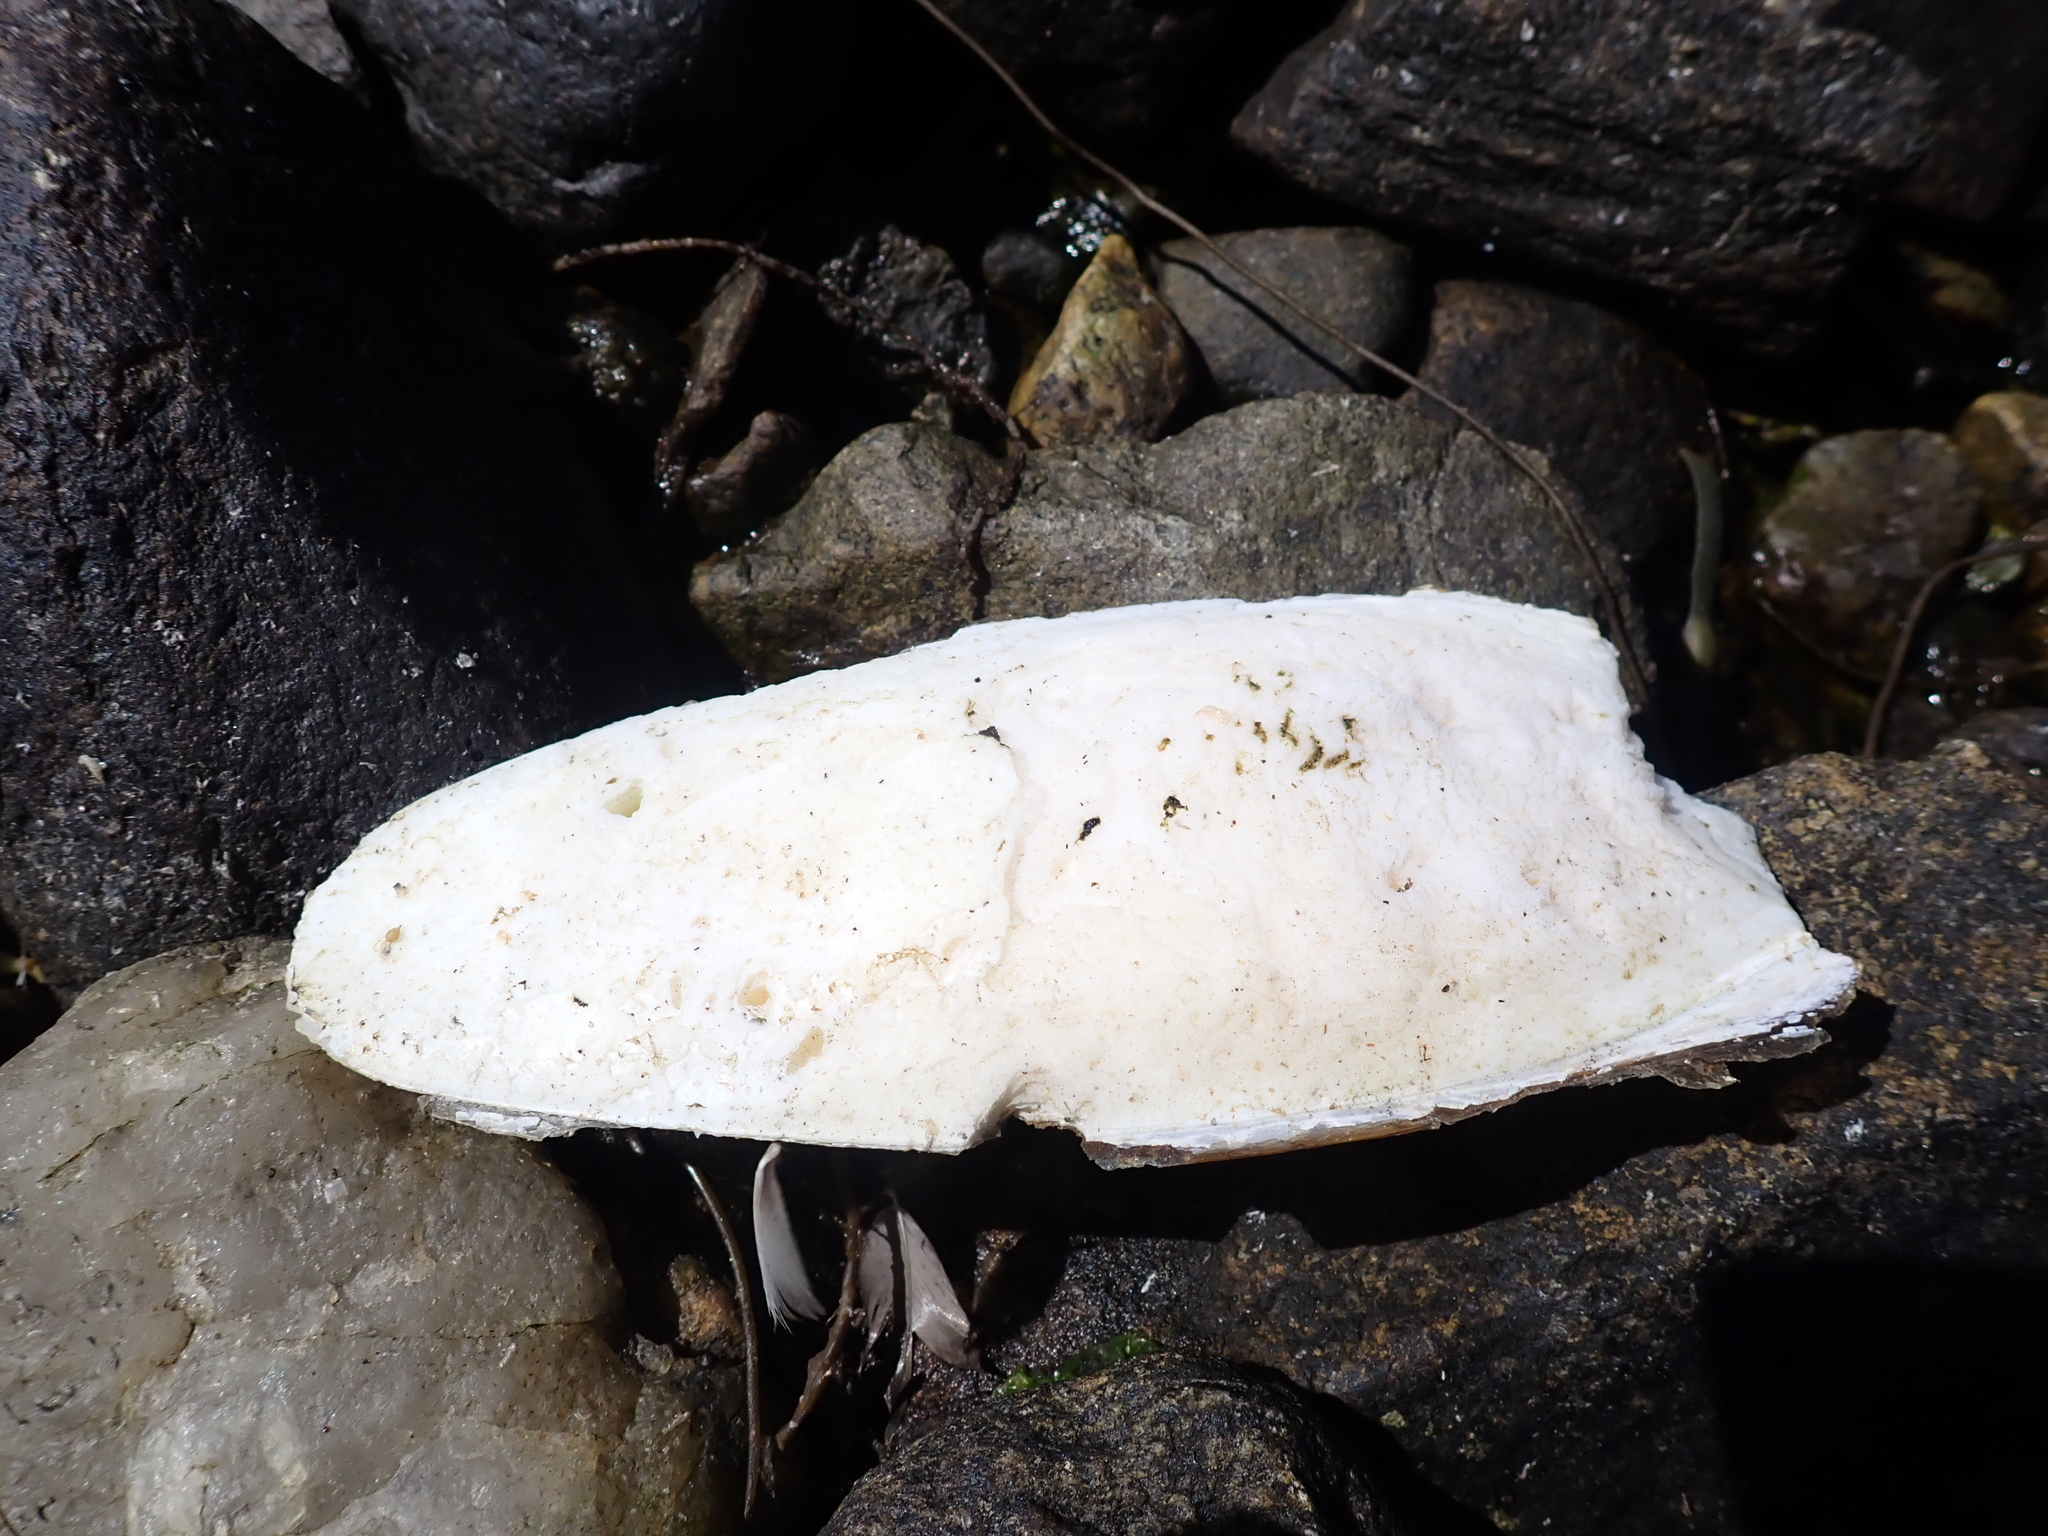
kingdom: Animalia
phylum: Mollusca
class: Cephalopoda
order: Sepiida
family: Sepiidae
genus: Sepia
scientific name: Sepia officinalis
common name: Common cuttlefish
